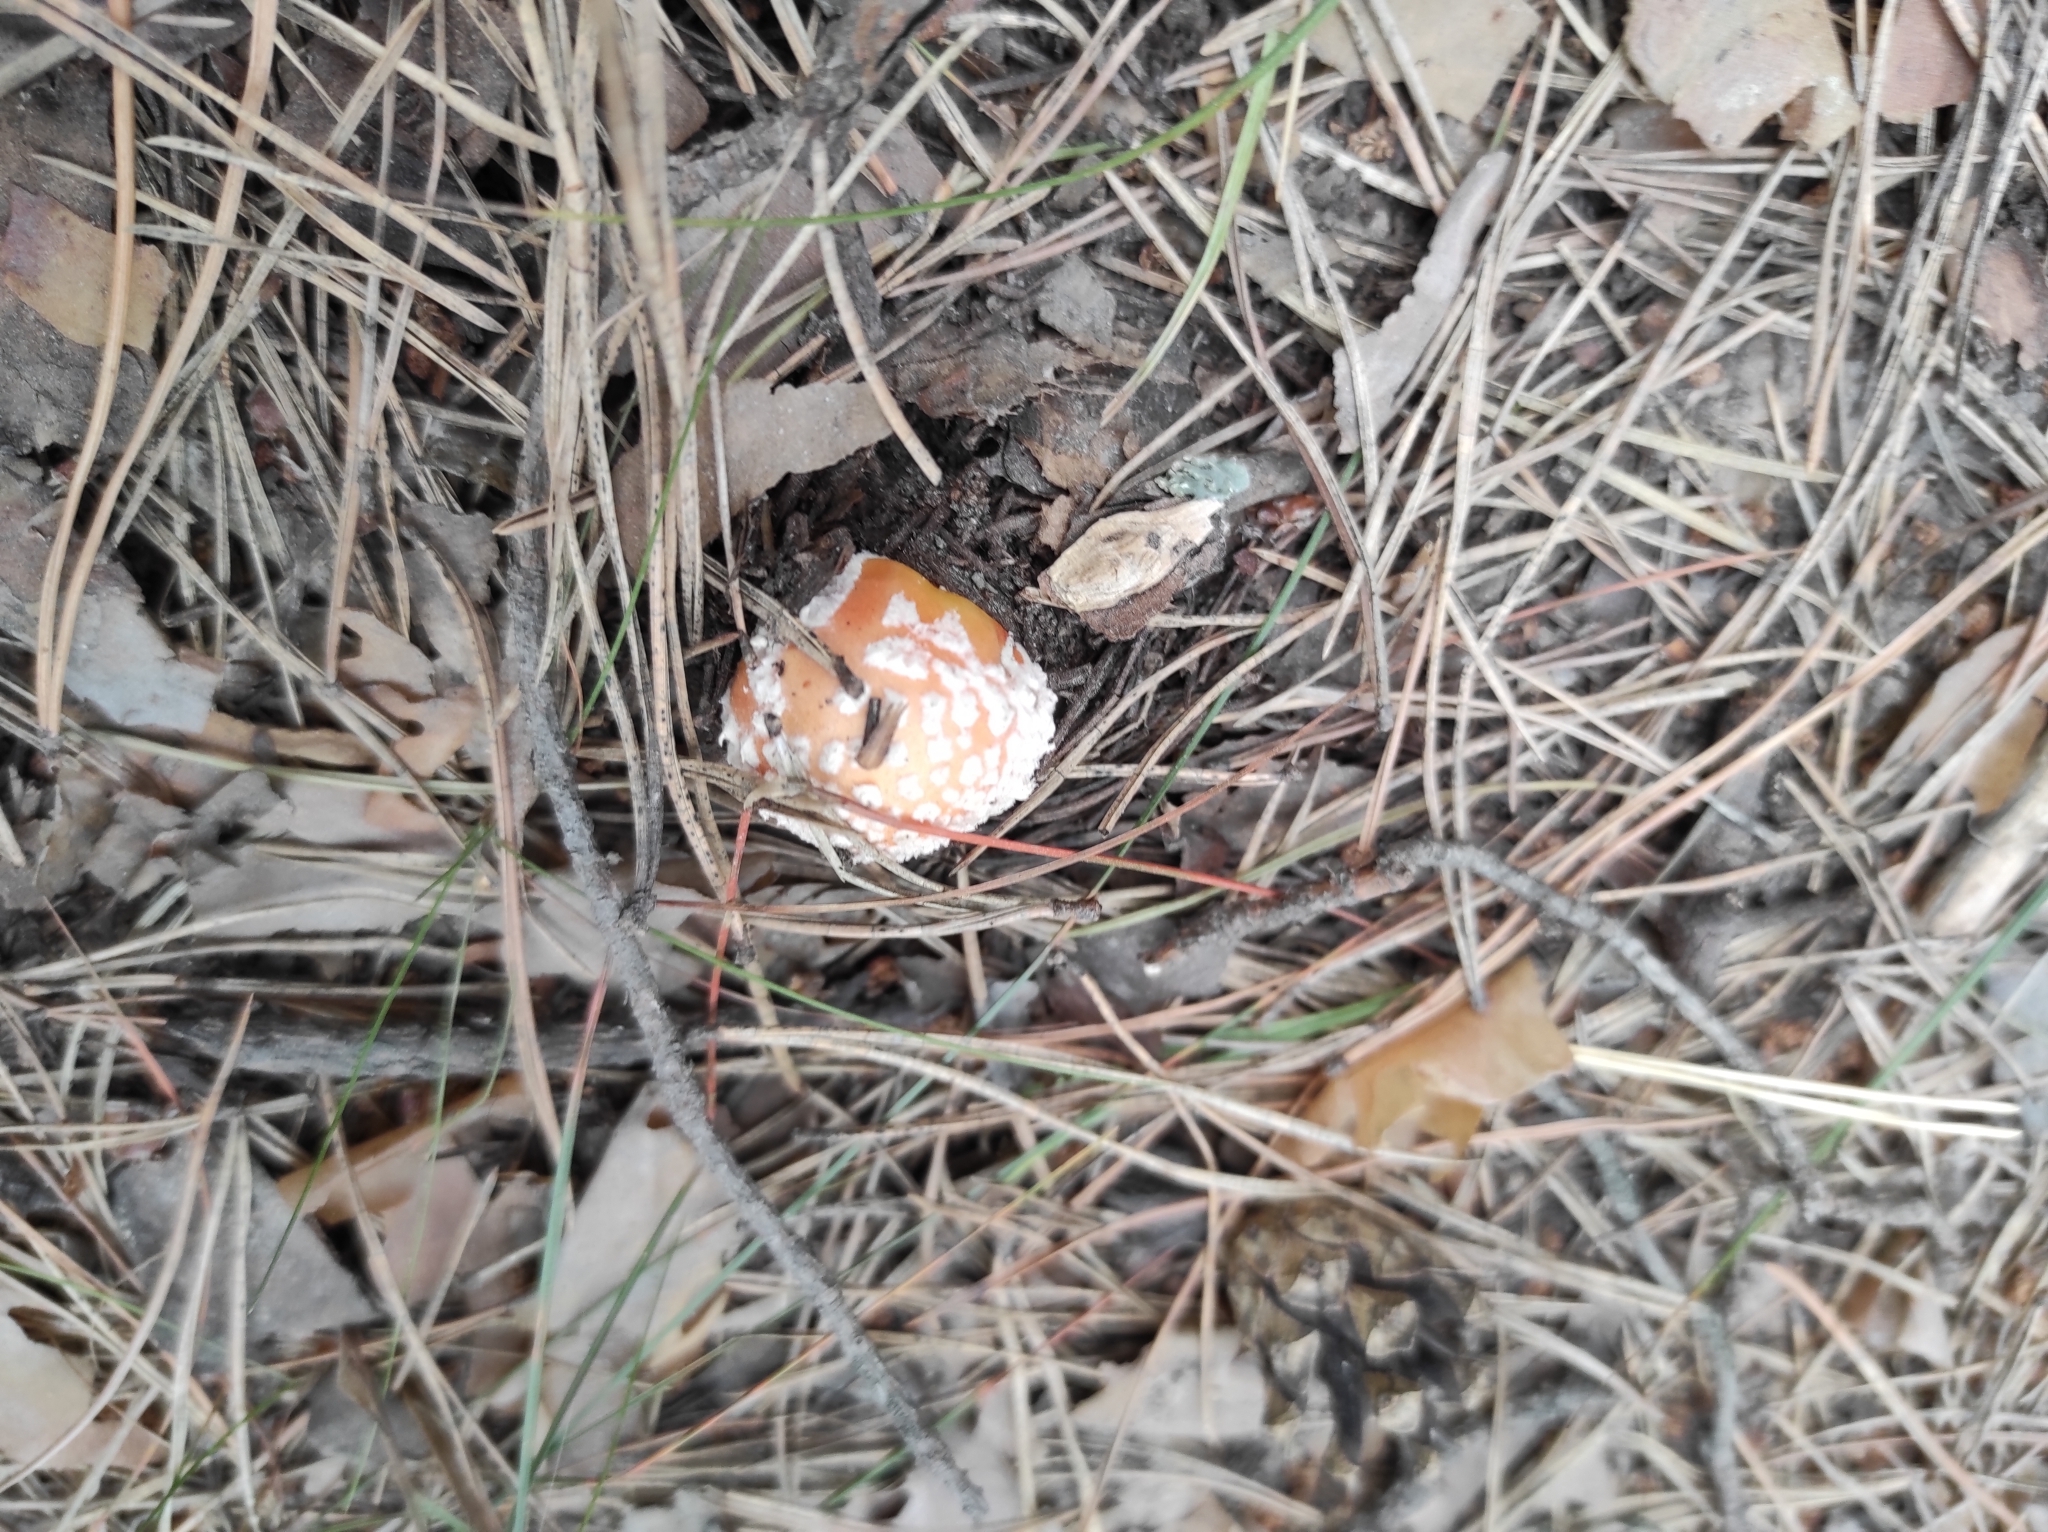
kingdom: Fungi
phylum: Basidiomycota
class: Agaricomycetes
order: Agaricales
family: Amanitaceae
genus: Amanita
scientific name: Amanita muscaria
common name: Fly agaric
